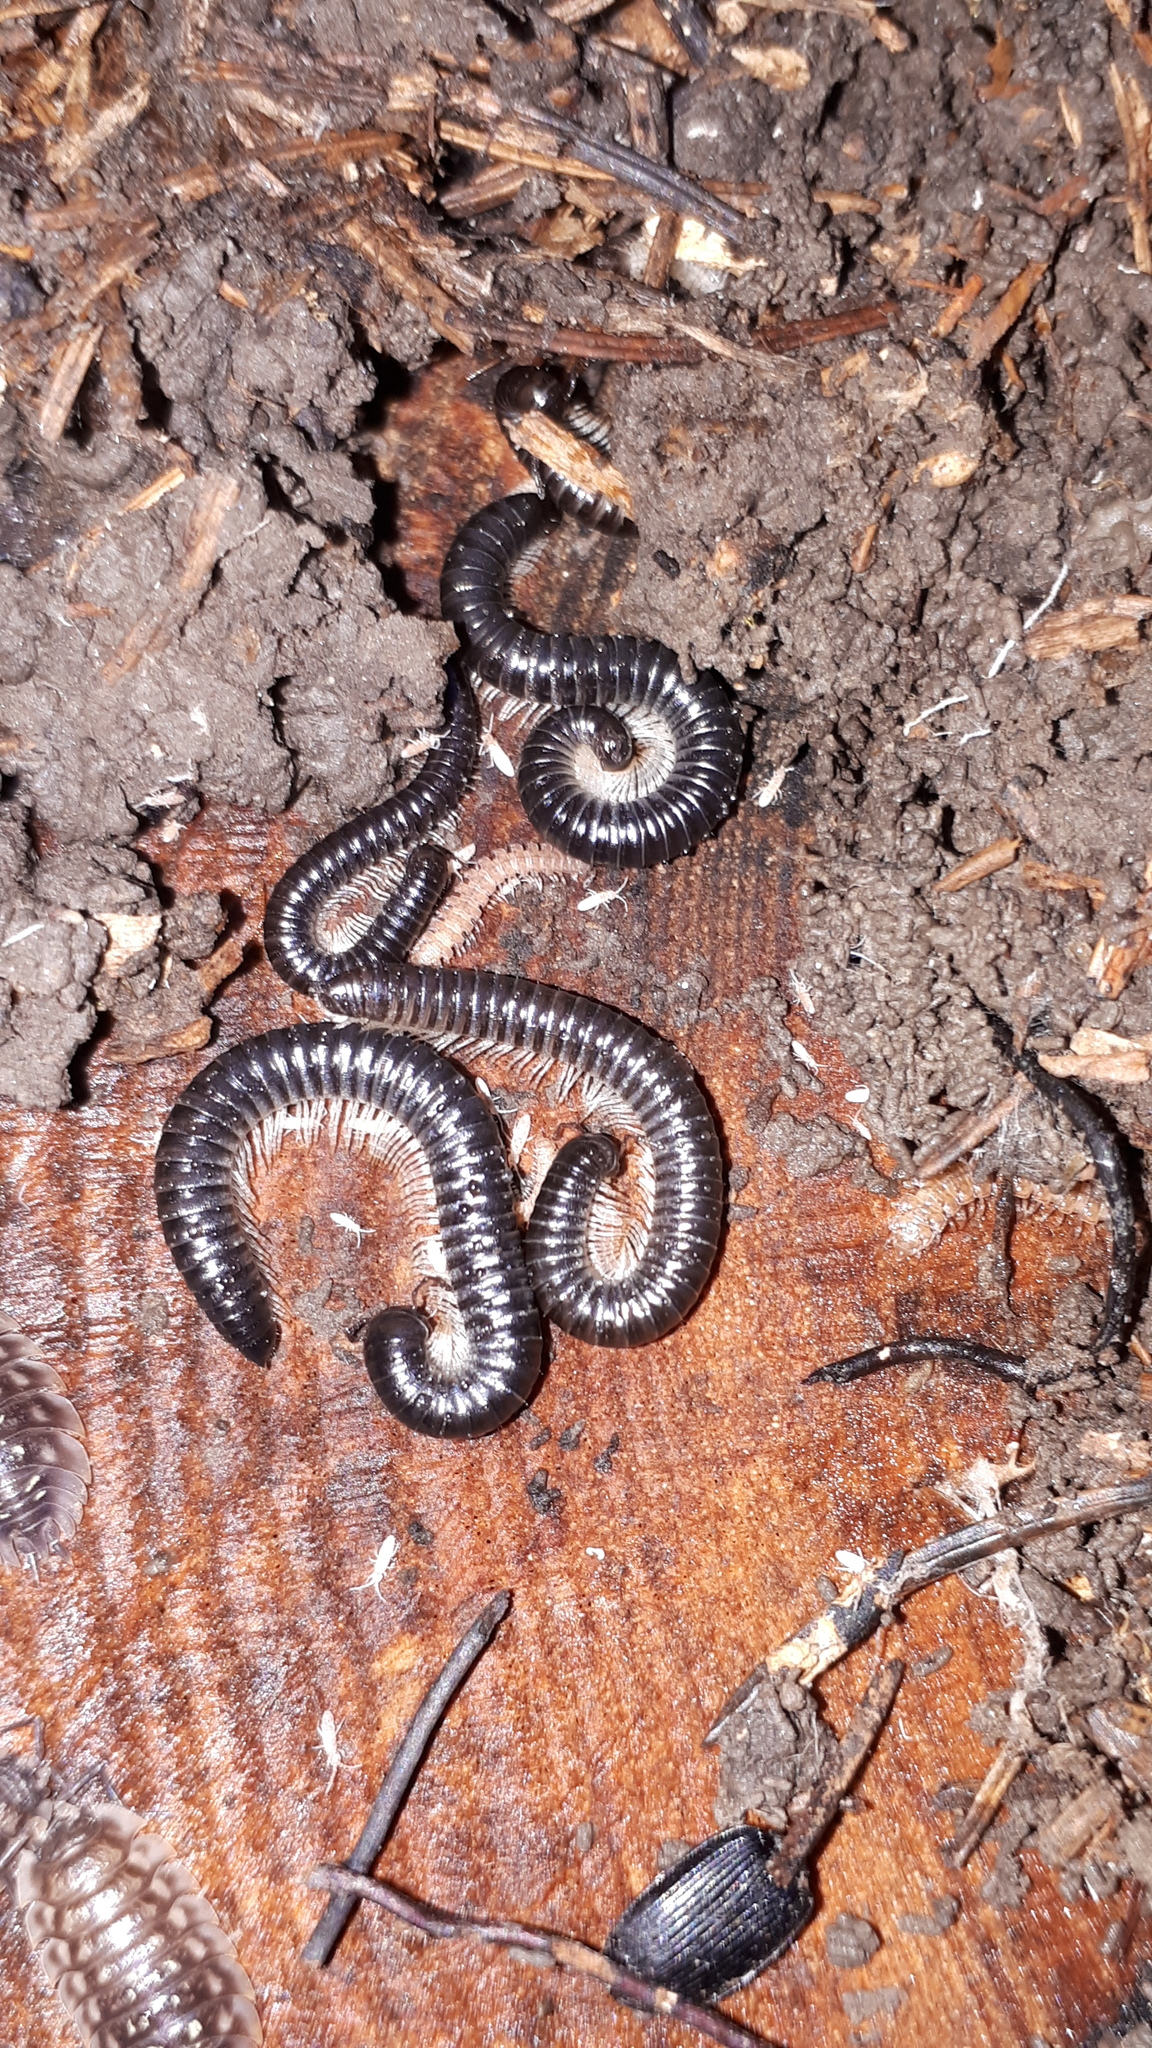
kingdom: Animalia
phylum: Arthropoda
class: Diplopoda
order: Julida
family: Julidae
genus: Tachypodoiulus
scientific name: Tachypodoiulus niger
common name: White-legged snake millipede
